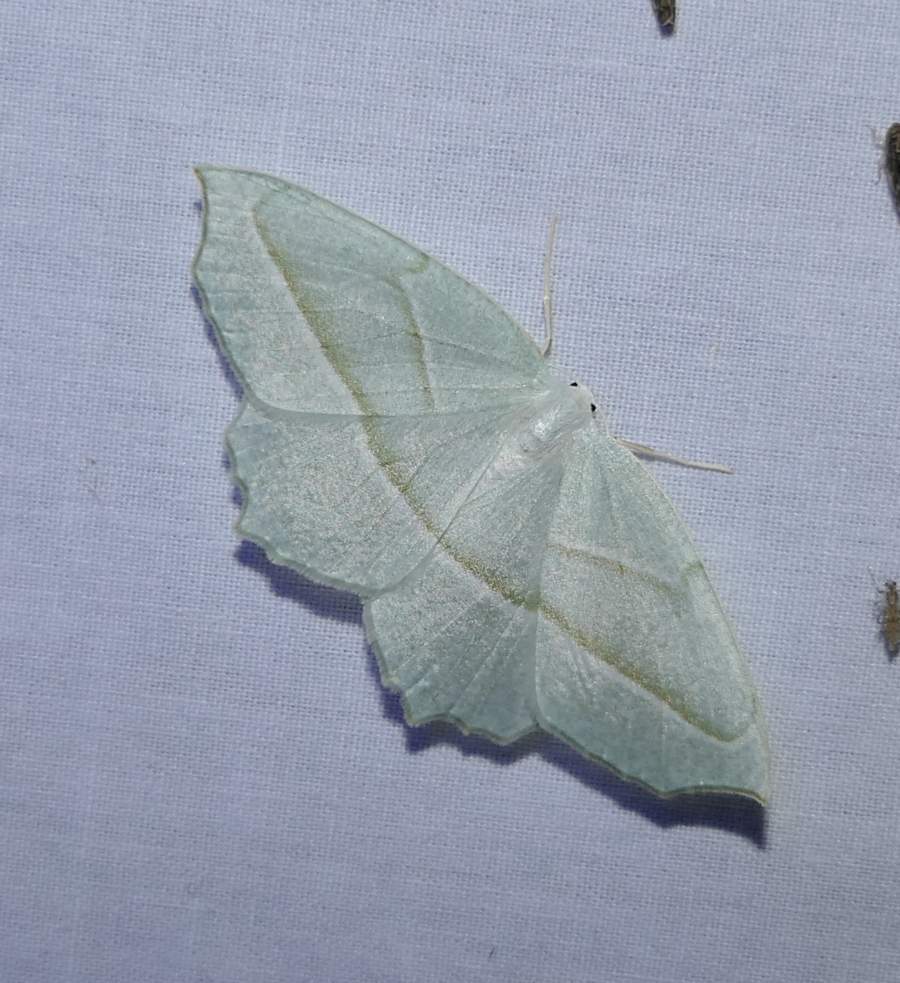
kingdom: Animalia
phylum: Arthropoda
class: Insecta
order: Lepidoptera
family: Geometridae
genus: Campaea
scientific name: Campaea perlata
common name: Fringed looper
